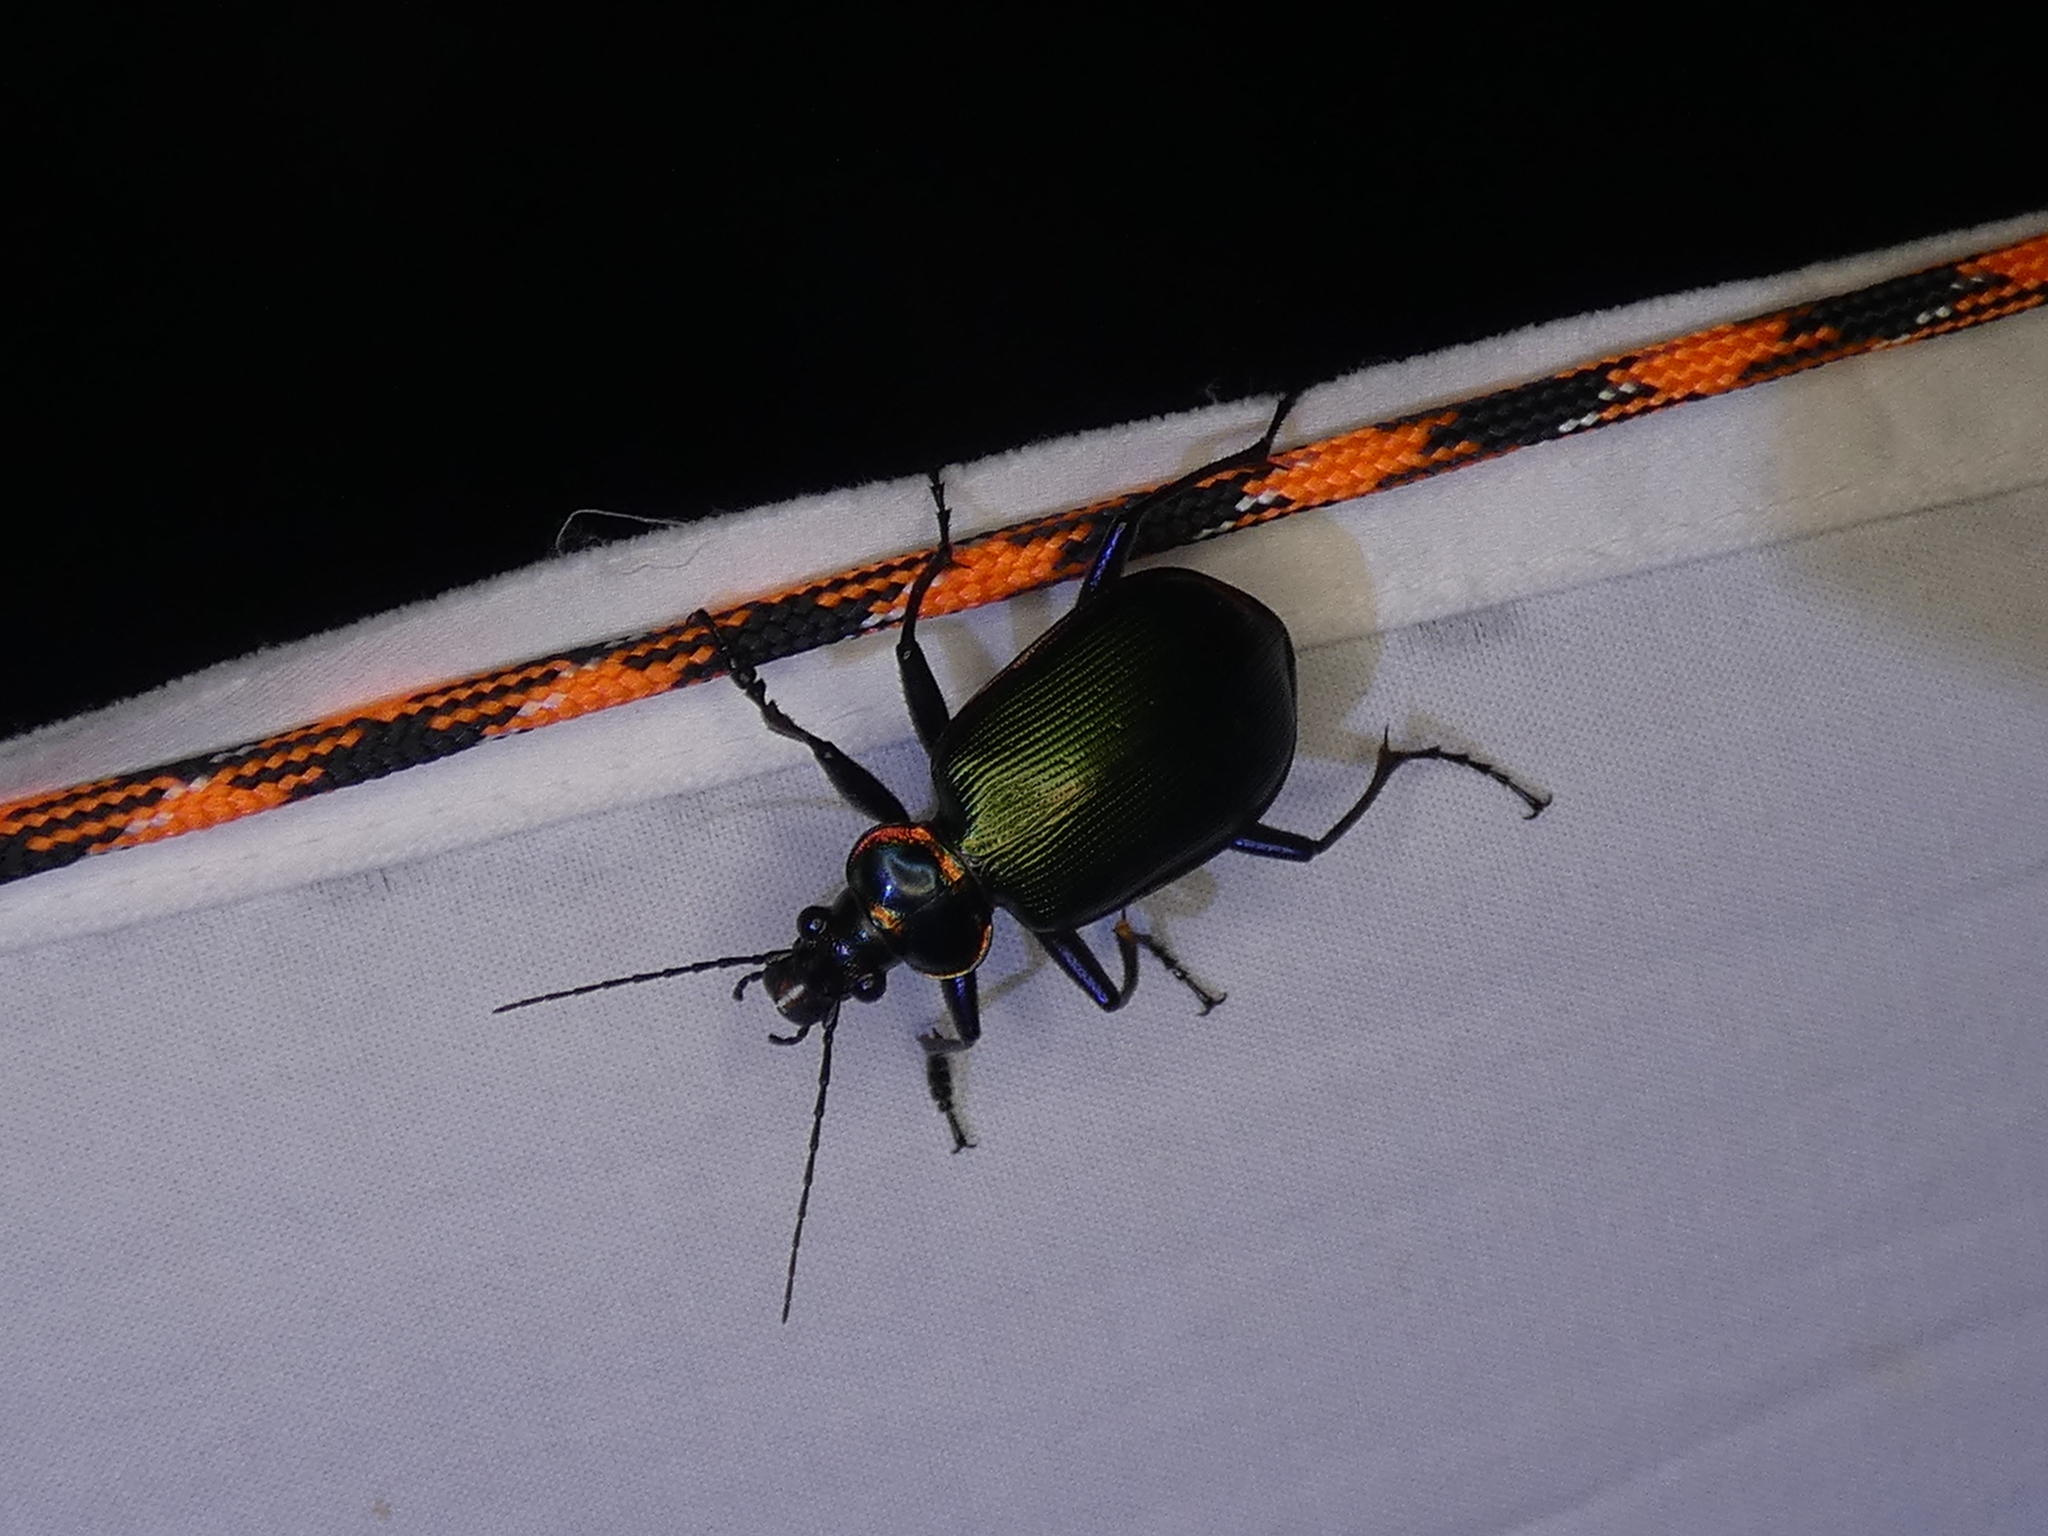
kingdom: Animalia
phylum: Arthropoda
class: Insecta
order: Coleoptera
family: Carabidae
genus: Calosoma
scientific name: Calosoma scrutator
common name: Fiery searcher beetle
